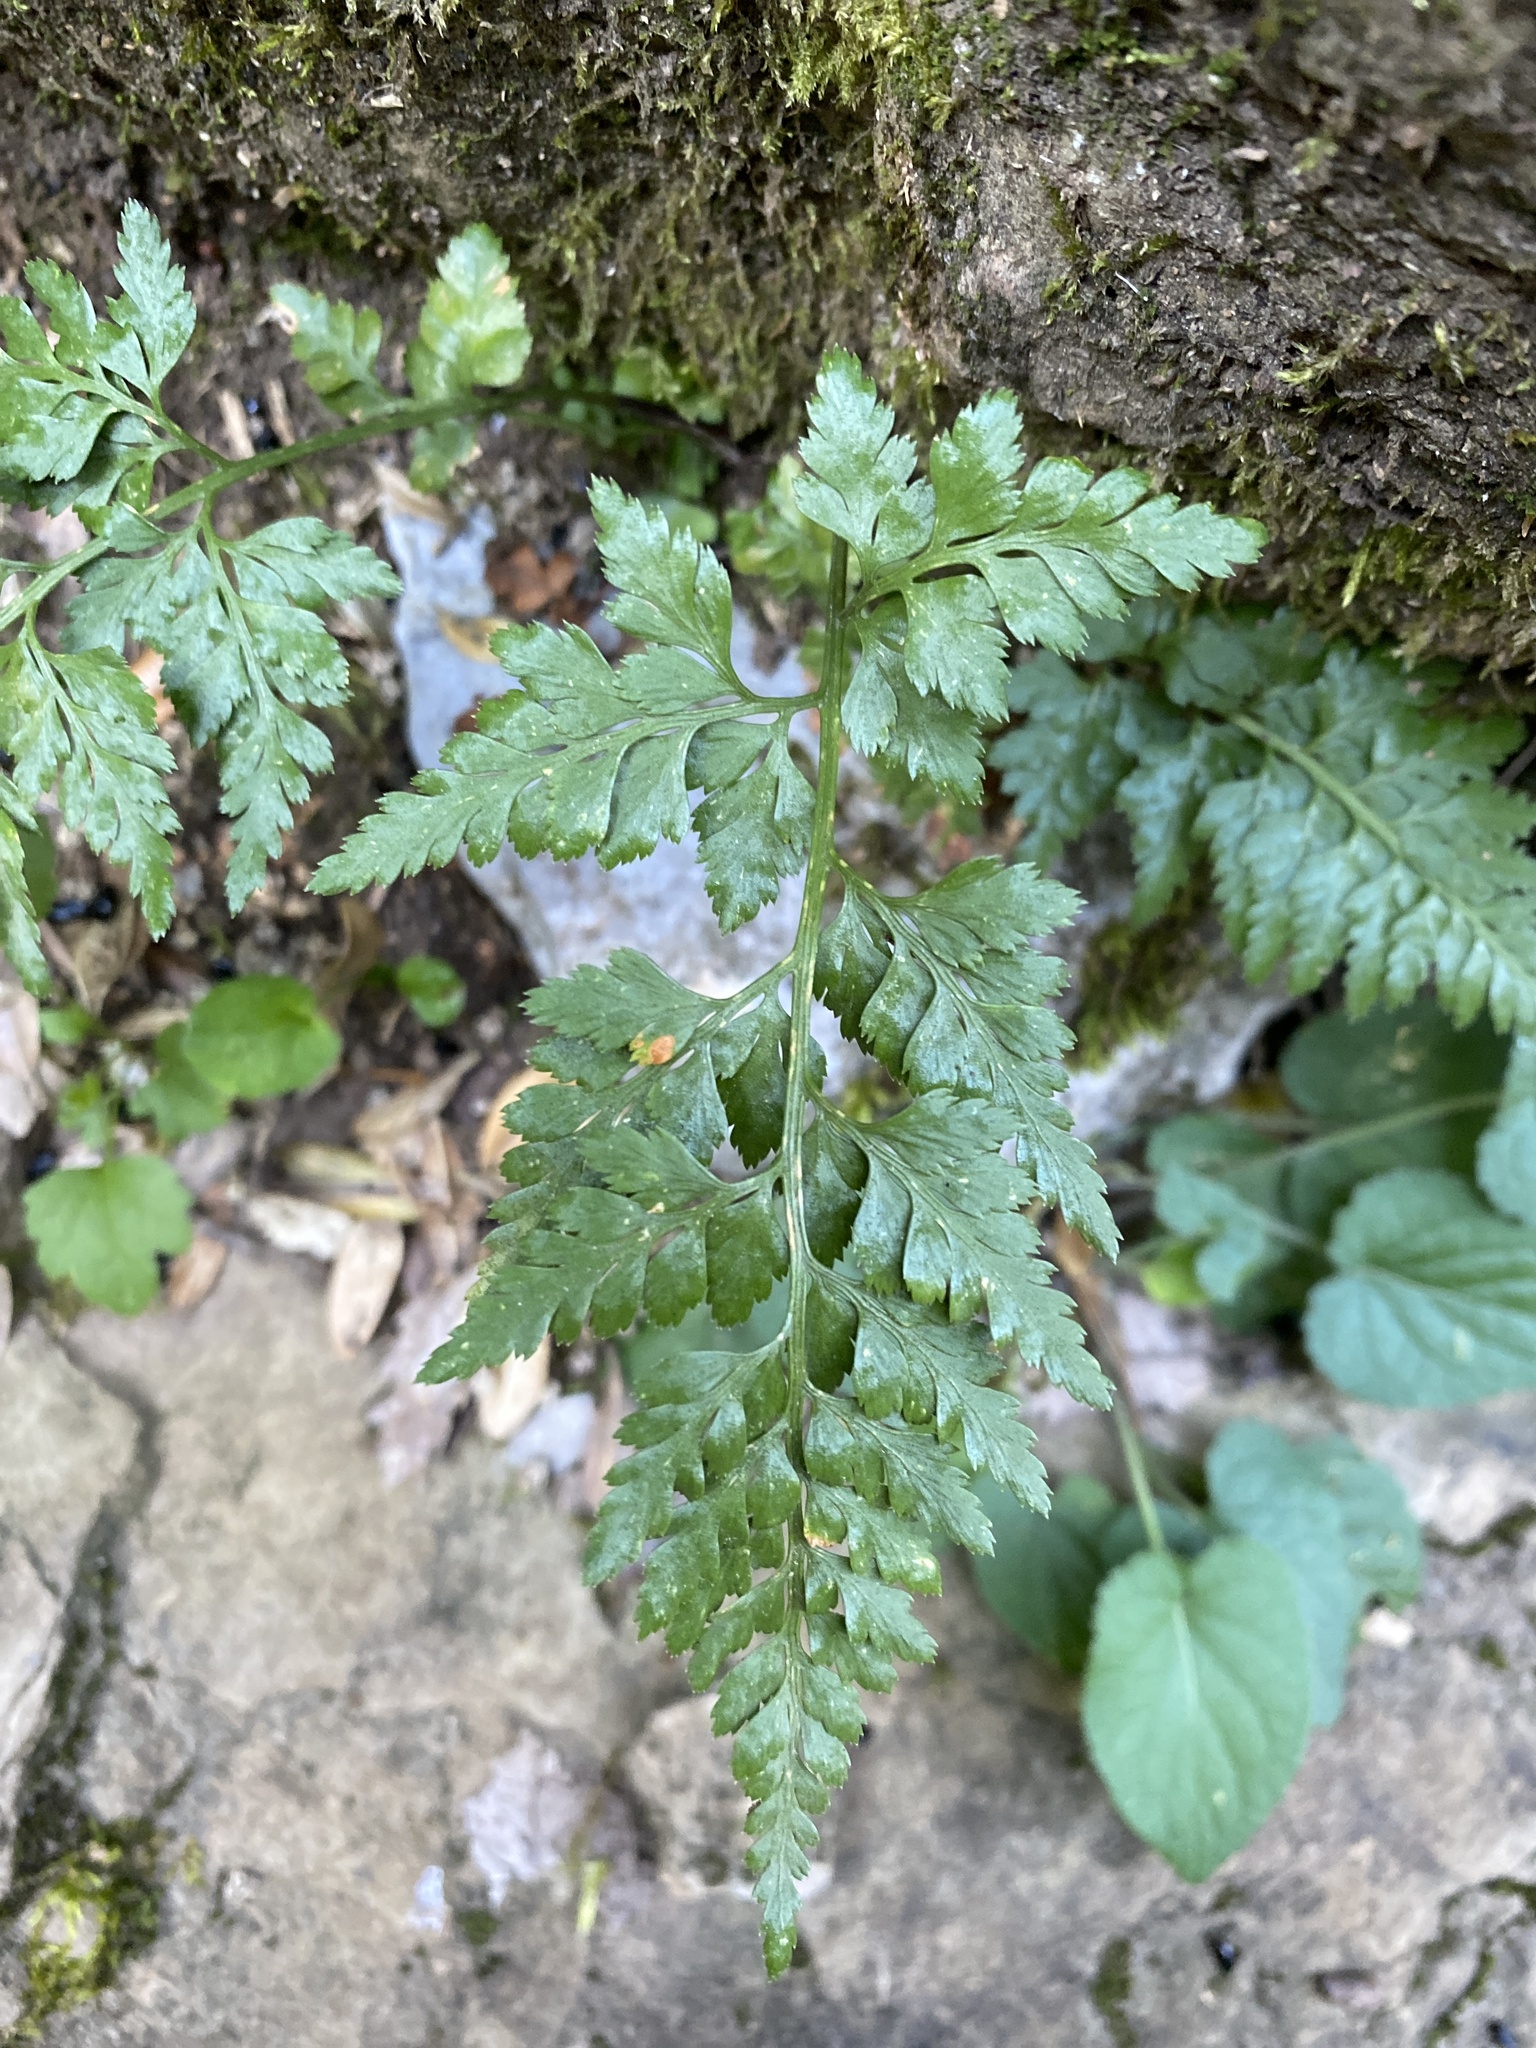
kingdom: Plantae
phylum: Tracheophyta
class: Polypodiopsida
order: Polypodiales
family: Aspleniaceae
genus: Asplenium
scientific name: Asplenium adiantum-nigrum
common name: Black spleenwort
